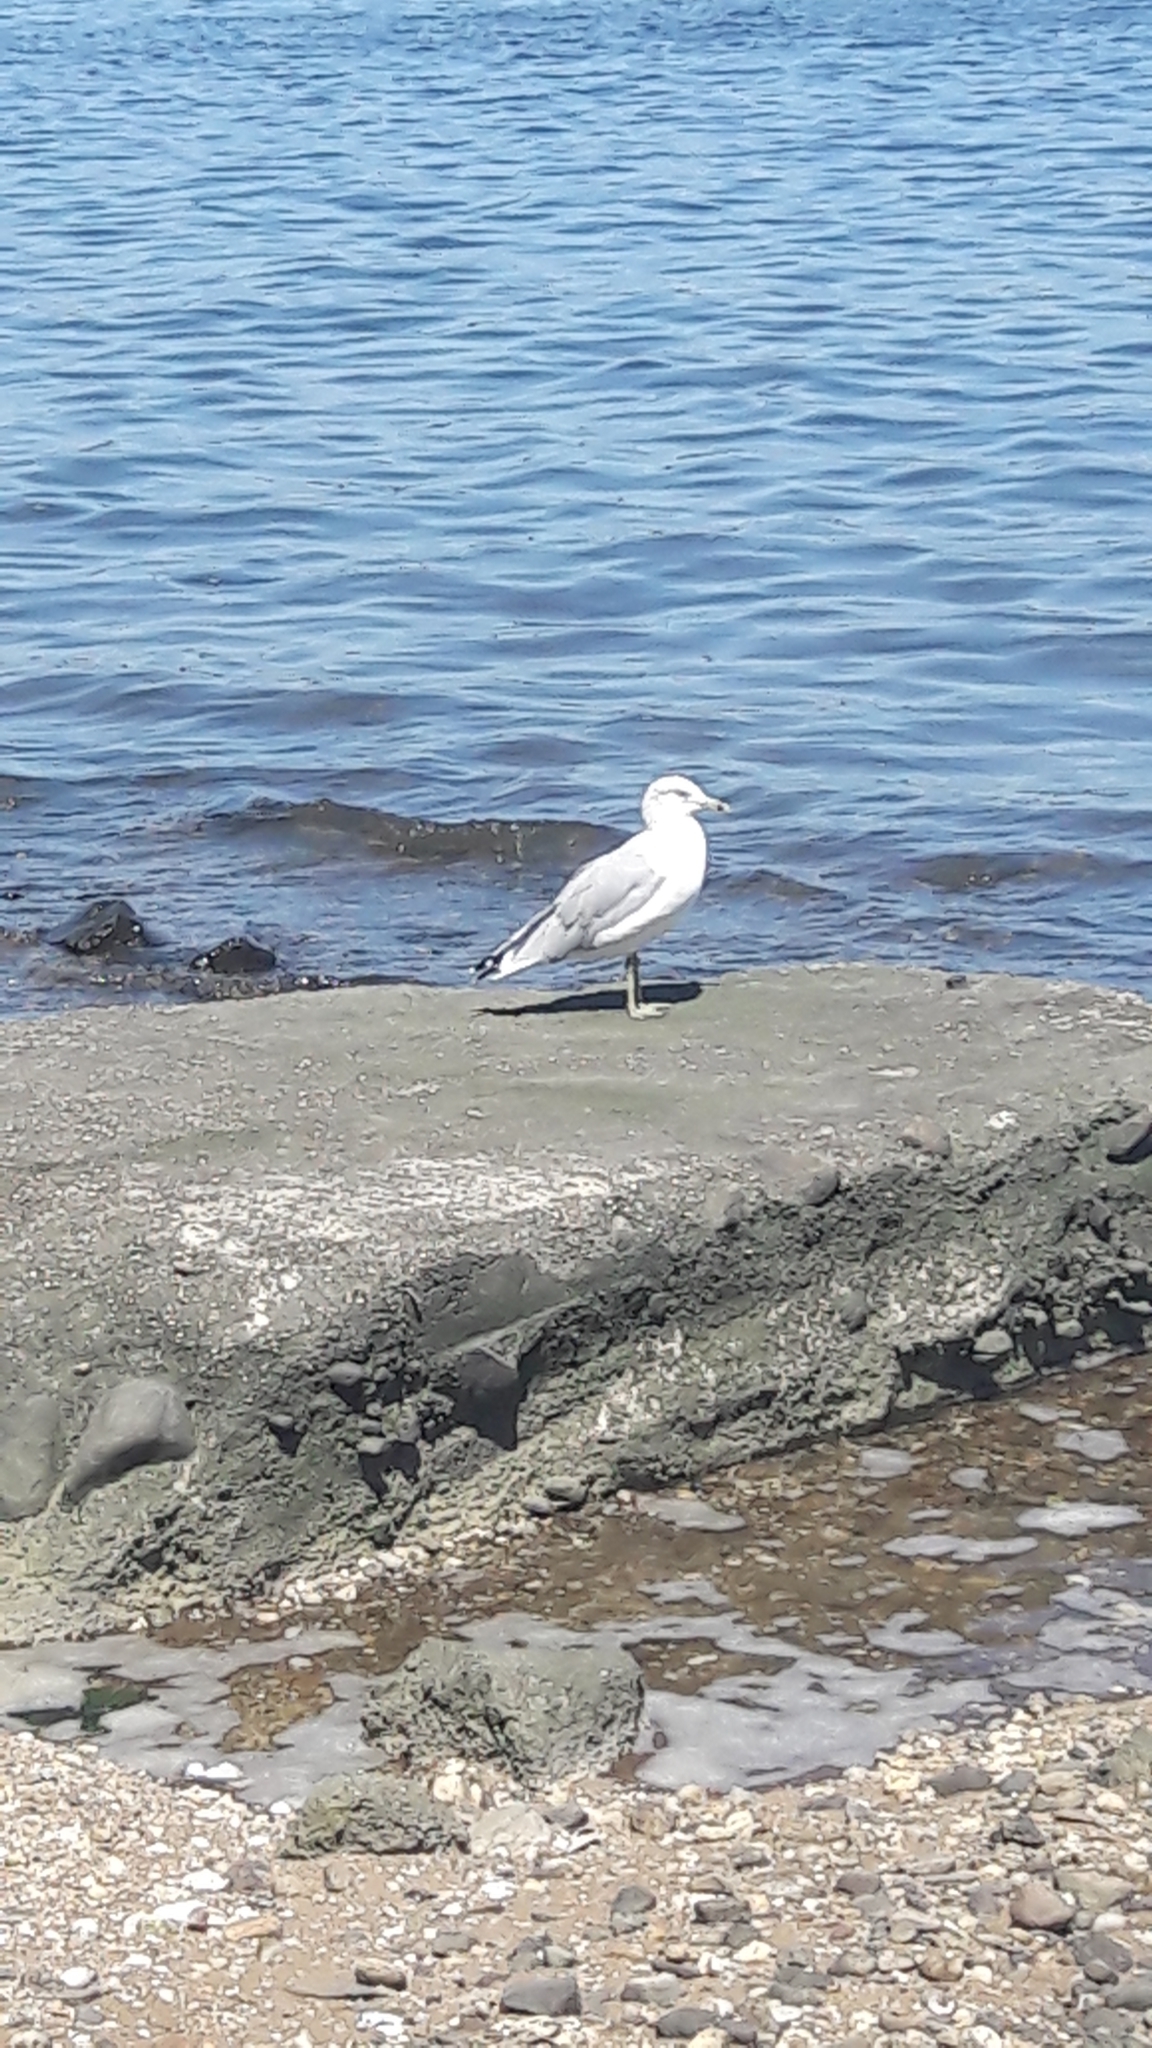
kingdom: Animalia
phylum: Chordata
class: Aves
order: Charadriiformes
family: Laridae
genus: Larus
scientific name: Larus delawarensis
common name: Ring-billed gull
